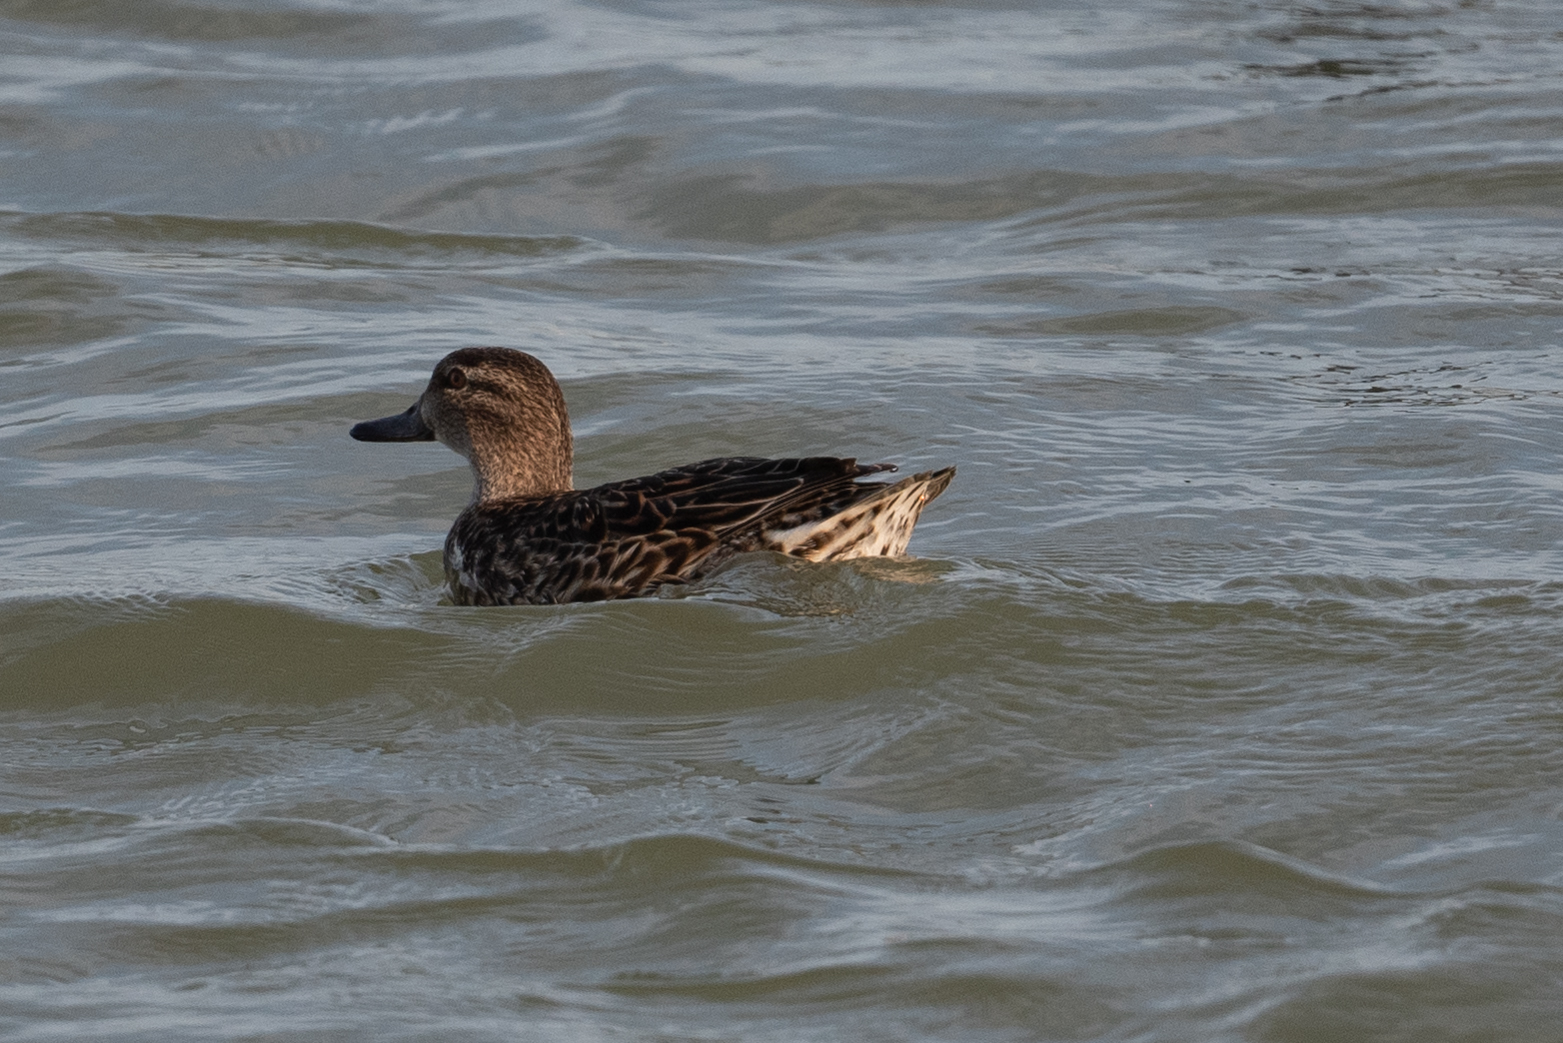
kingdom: Animalia
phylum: Chordata
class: Aves
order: Anseriformes
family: Anatidae
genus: Anas
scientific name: Anas crecca
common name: Eurasian teal
